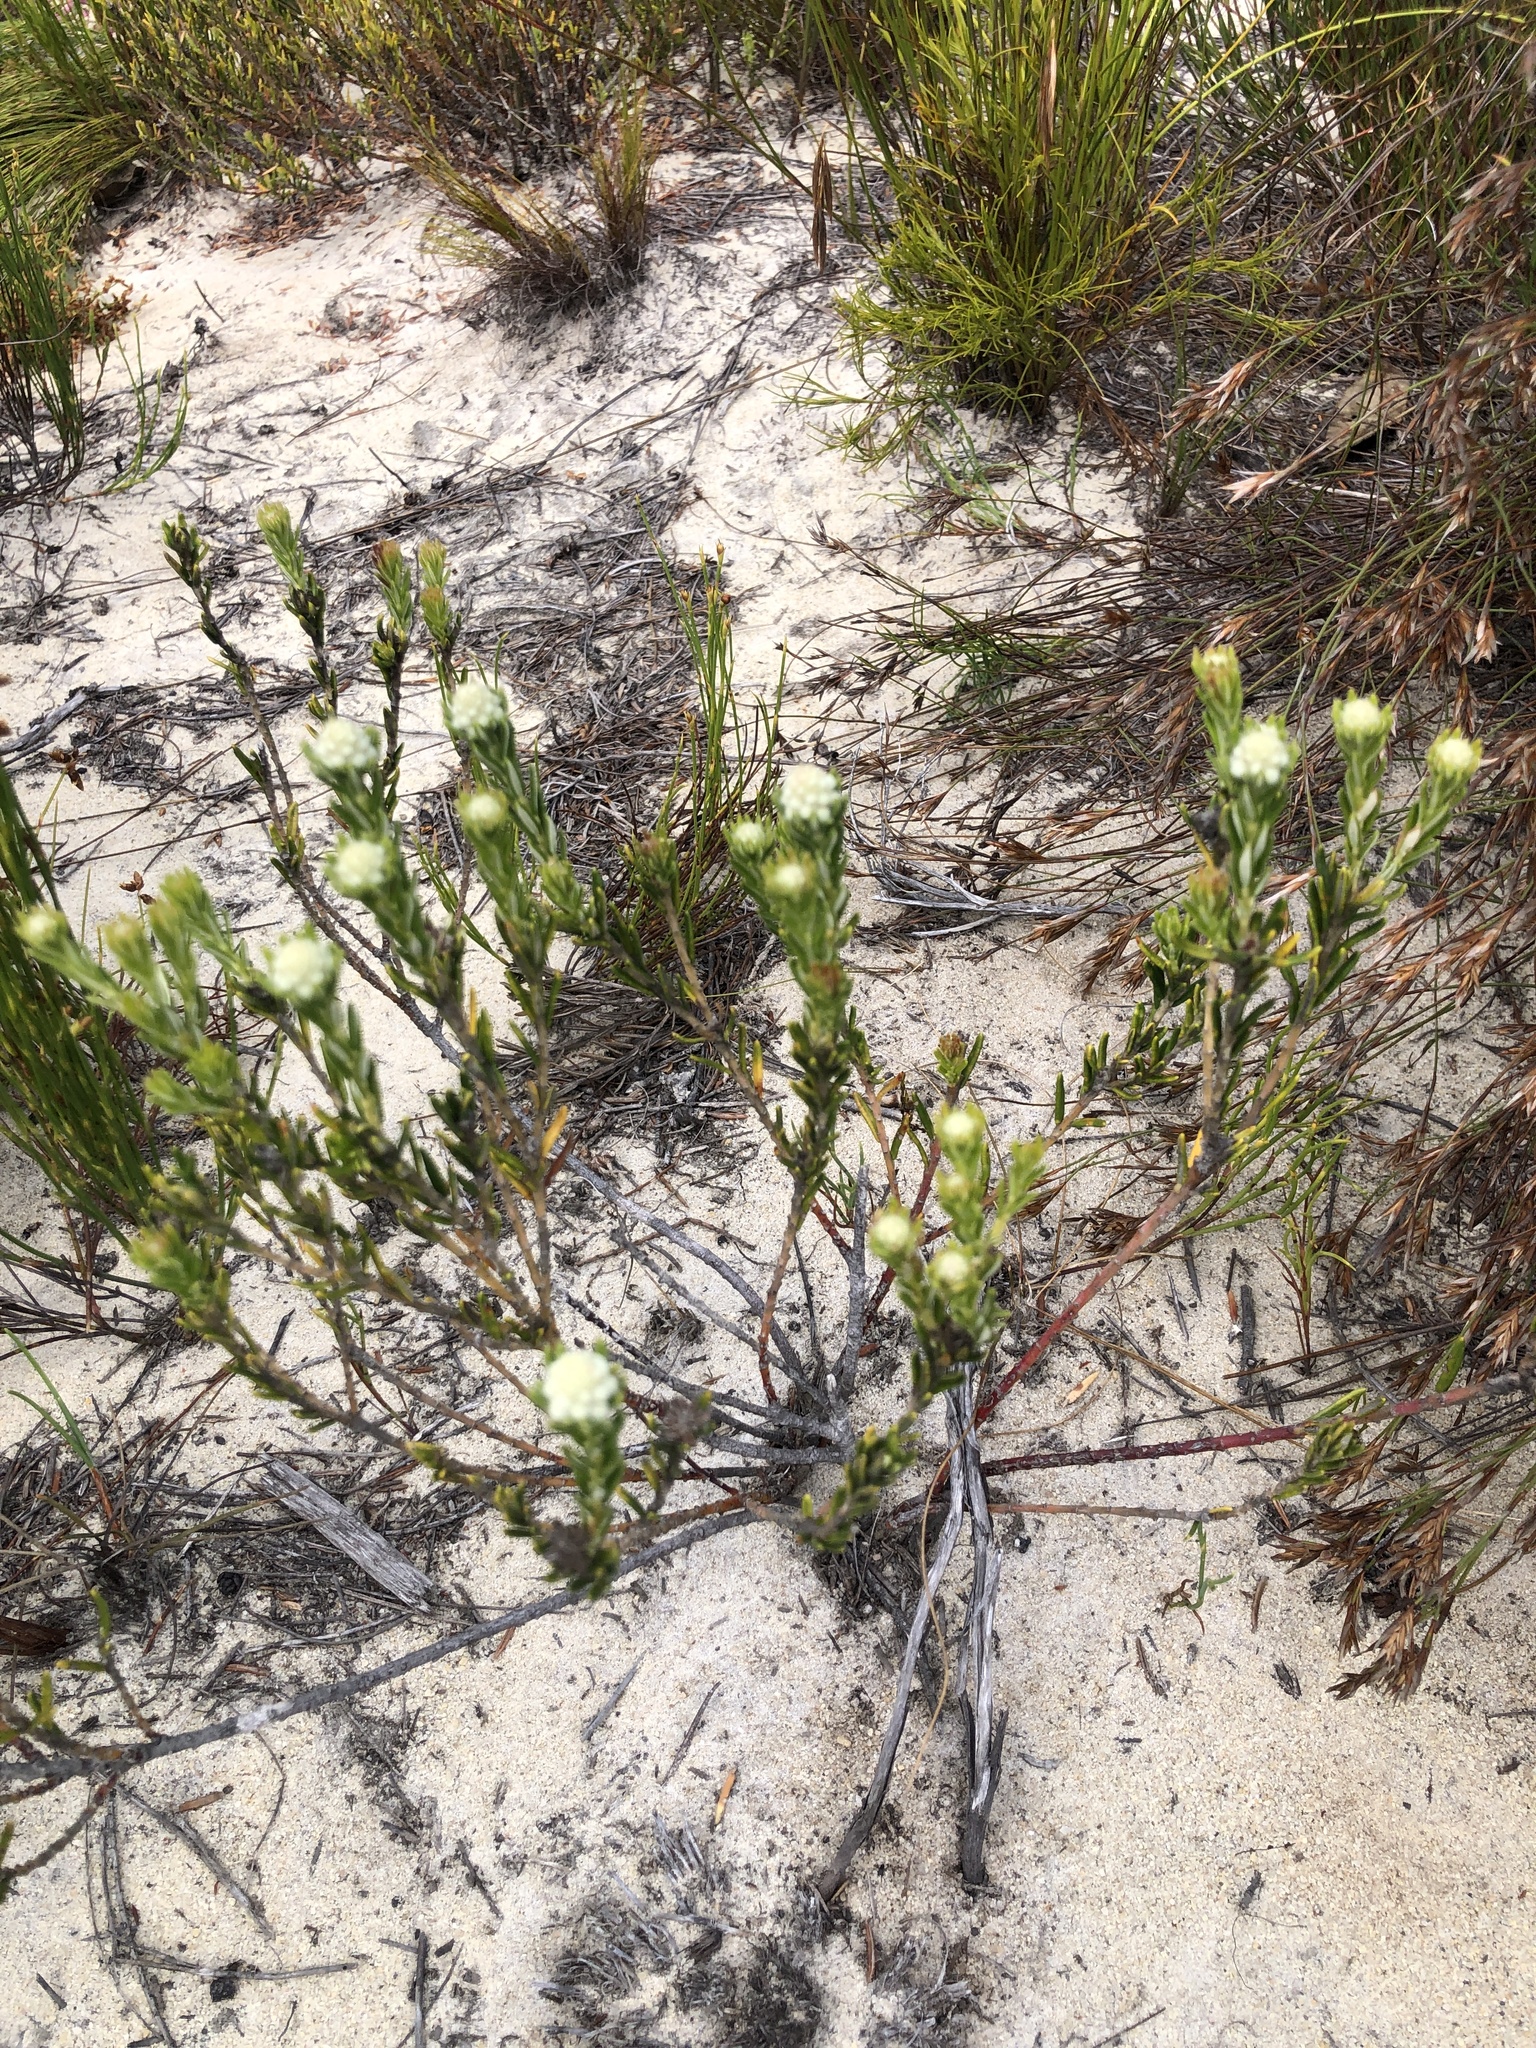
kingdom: Plantae
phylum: Tracheophyta
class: Magnoliopsida
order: Rosales
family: Rhamnaceae
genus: Phylica
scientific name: Phylica imberbis
